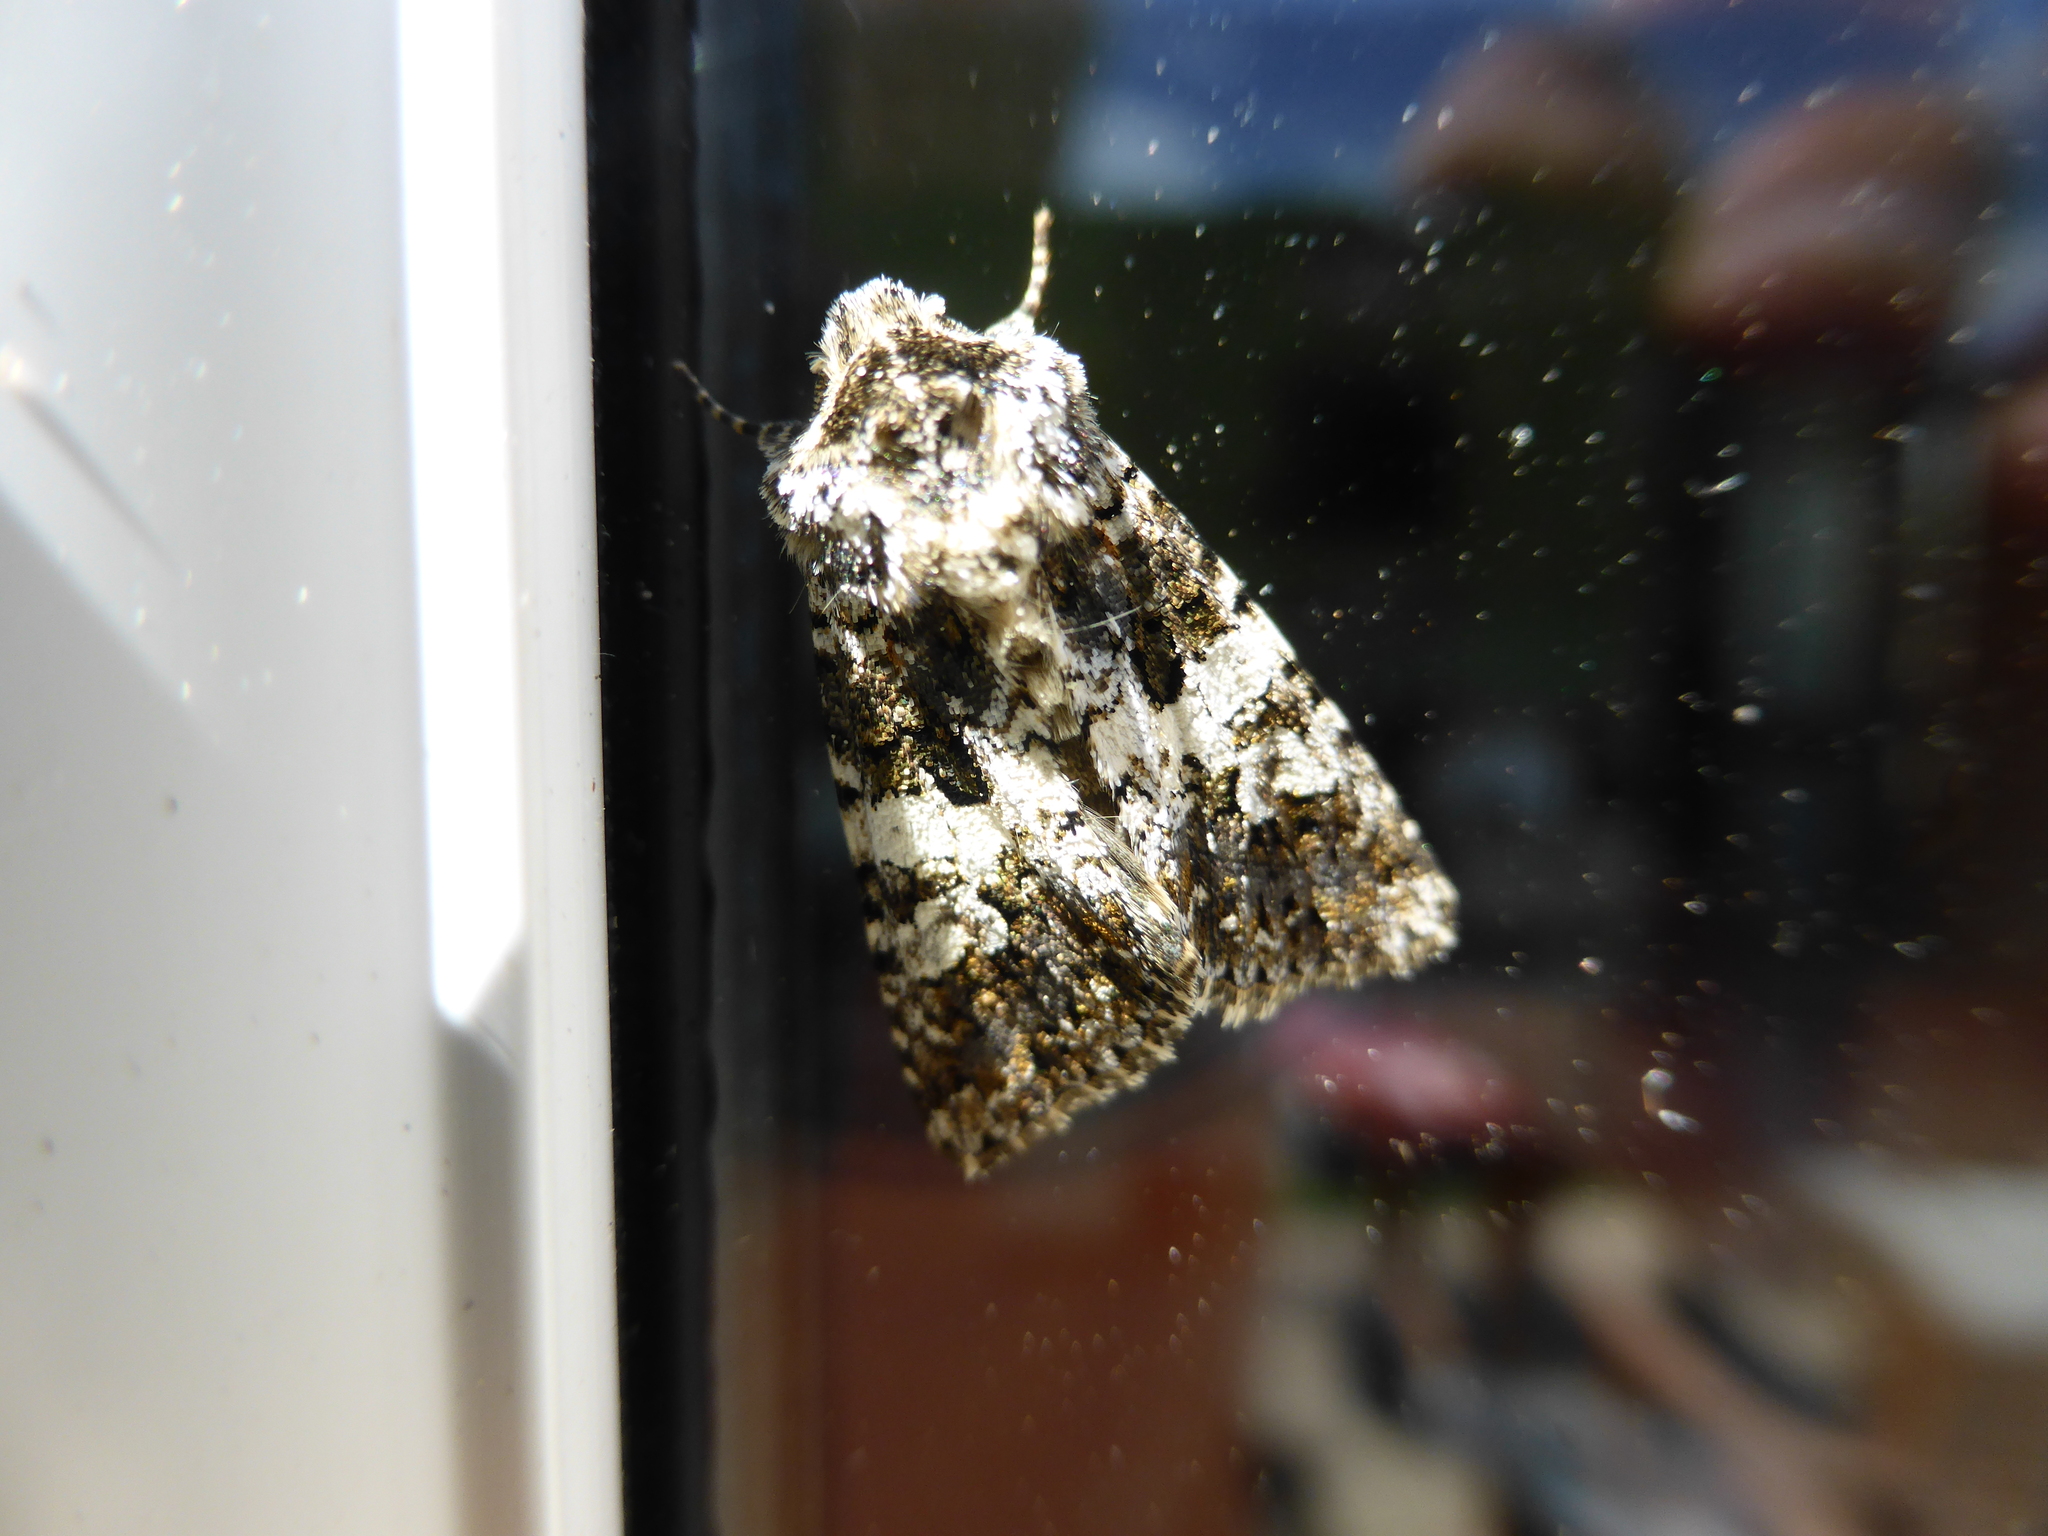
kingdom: Animalia
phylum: Arthropoda
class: Insecta
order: Lepidoptera
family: Noctuidae
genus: Hadena
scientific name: Hadena compta
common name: Varied coronet
